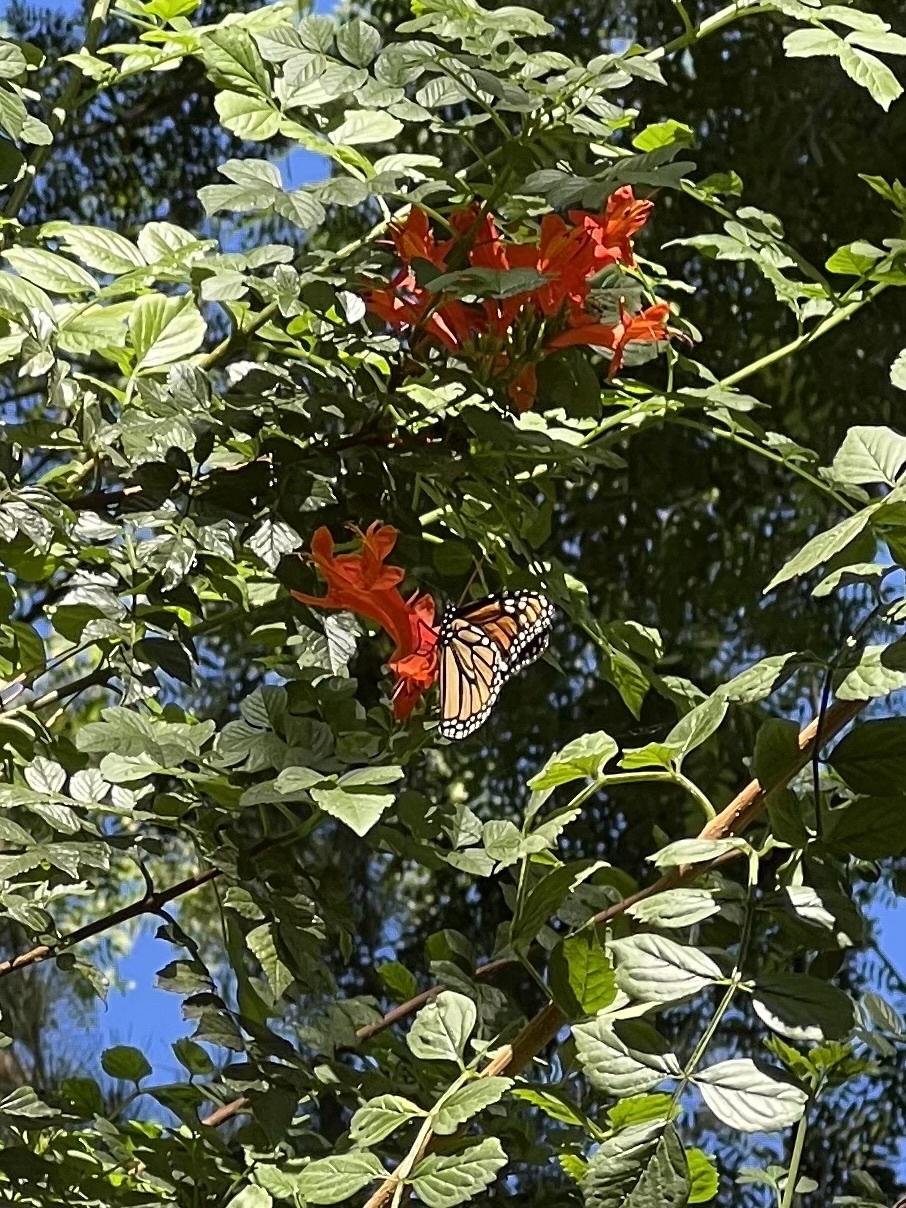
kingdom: Animalia
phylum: Arthropoda
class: Insecta
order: Lepidoptera
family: Nymphalidae
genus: Danaus
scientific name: Danaus plexippus
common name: Monarch
